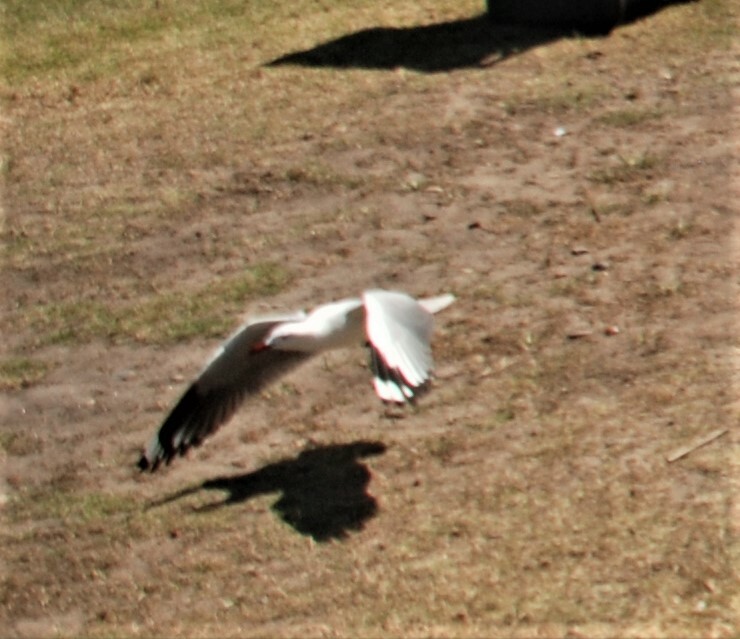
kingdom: Animalia
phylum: Chordata
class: Aves
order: Charadriiformes
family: Laridae
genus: Chroicocephalus
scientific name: Chroicocephalus novaehollandiae
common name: Silver gull
